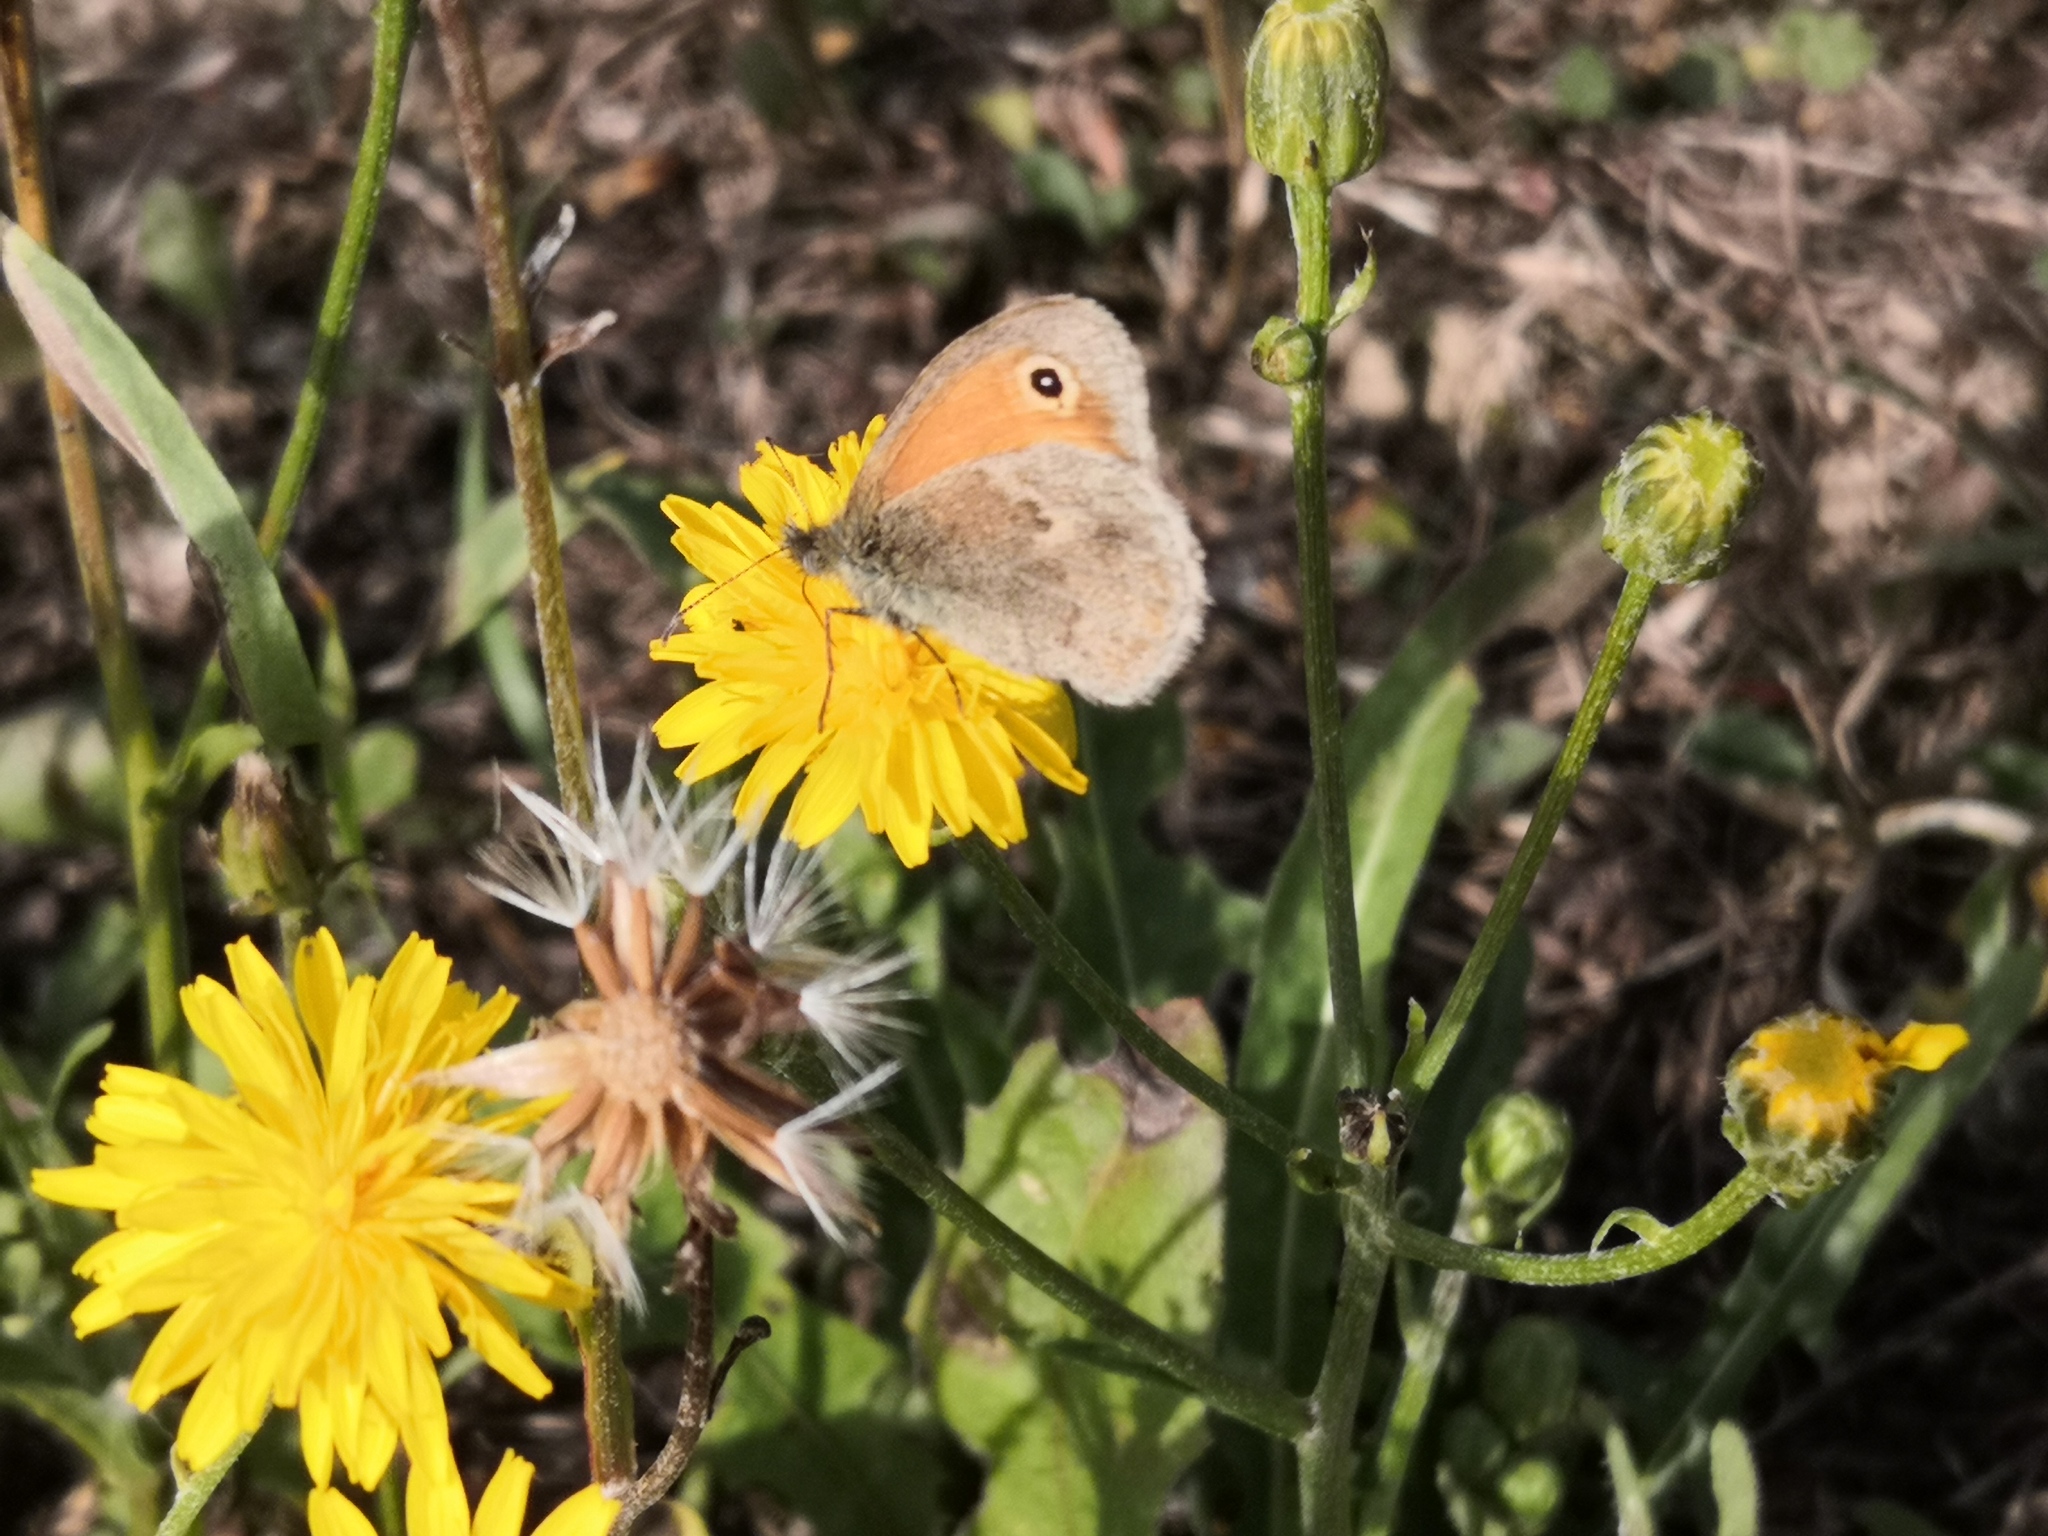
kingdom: Animalia
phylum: Arthropoda
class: Insecta
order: Lepidoptera
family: Nymphalidae
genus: Coenonympha
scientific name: Coenonympha pamphilus
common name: Small heath
